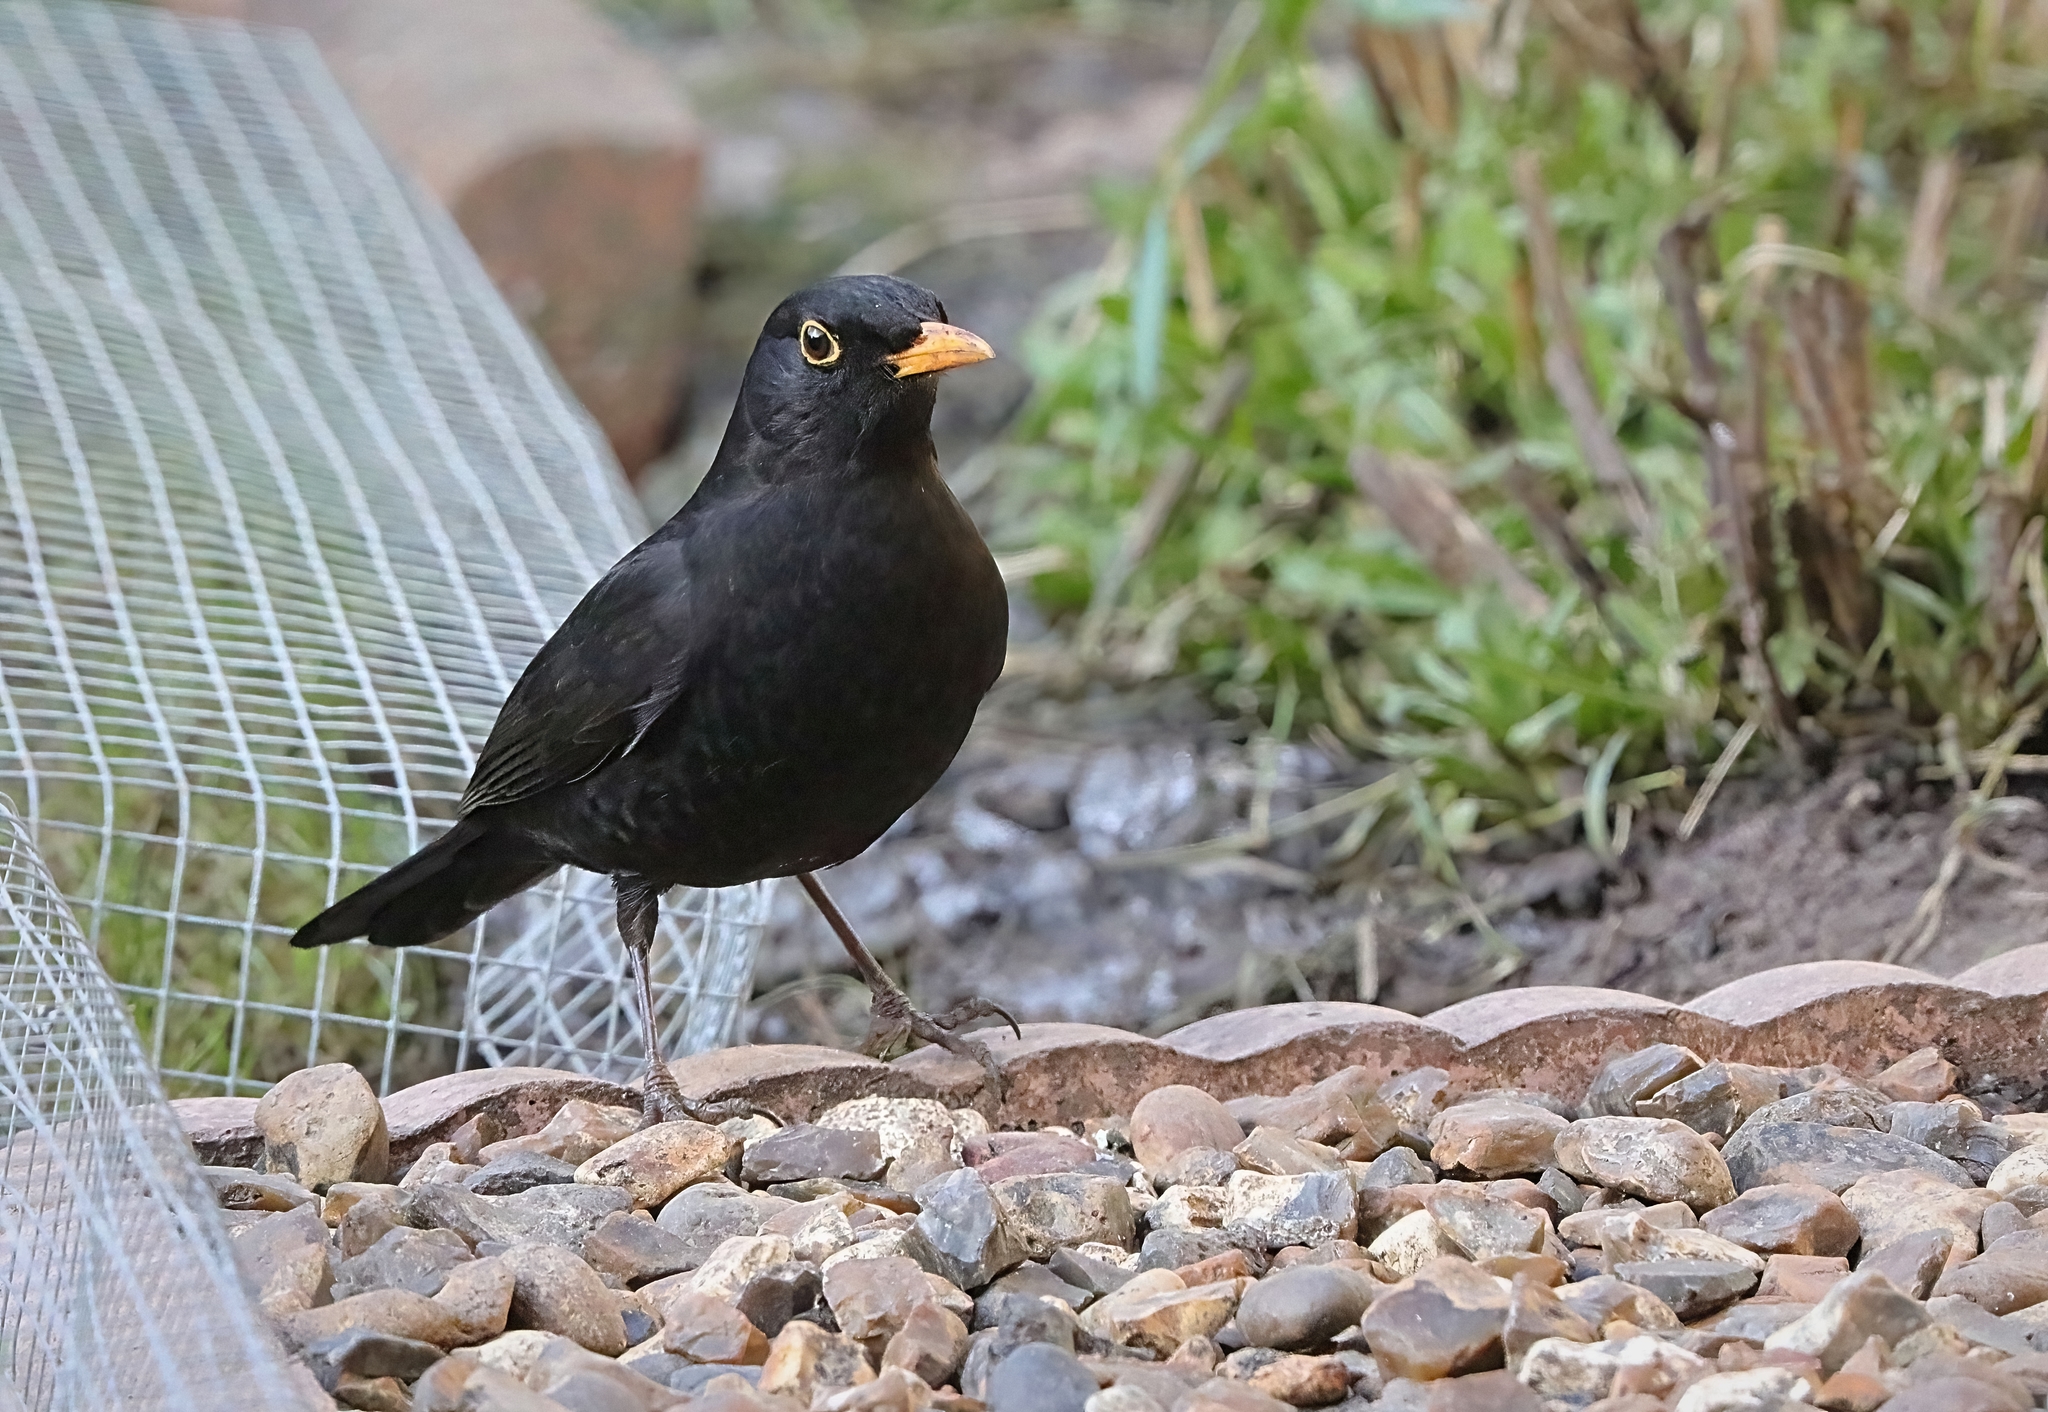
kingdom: Animalia
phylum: Chordata
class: Aves
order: Passeriformes
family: Turdidae
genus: Turdus
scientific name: Turdus merula
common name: Common blackbird
